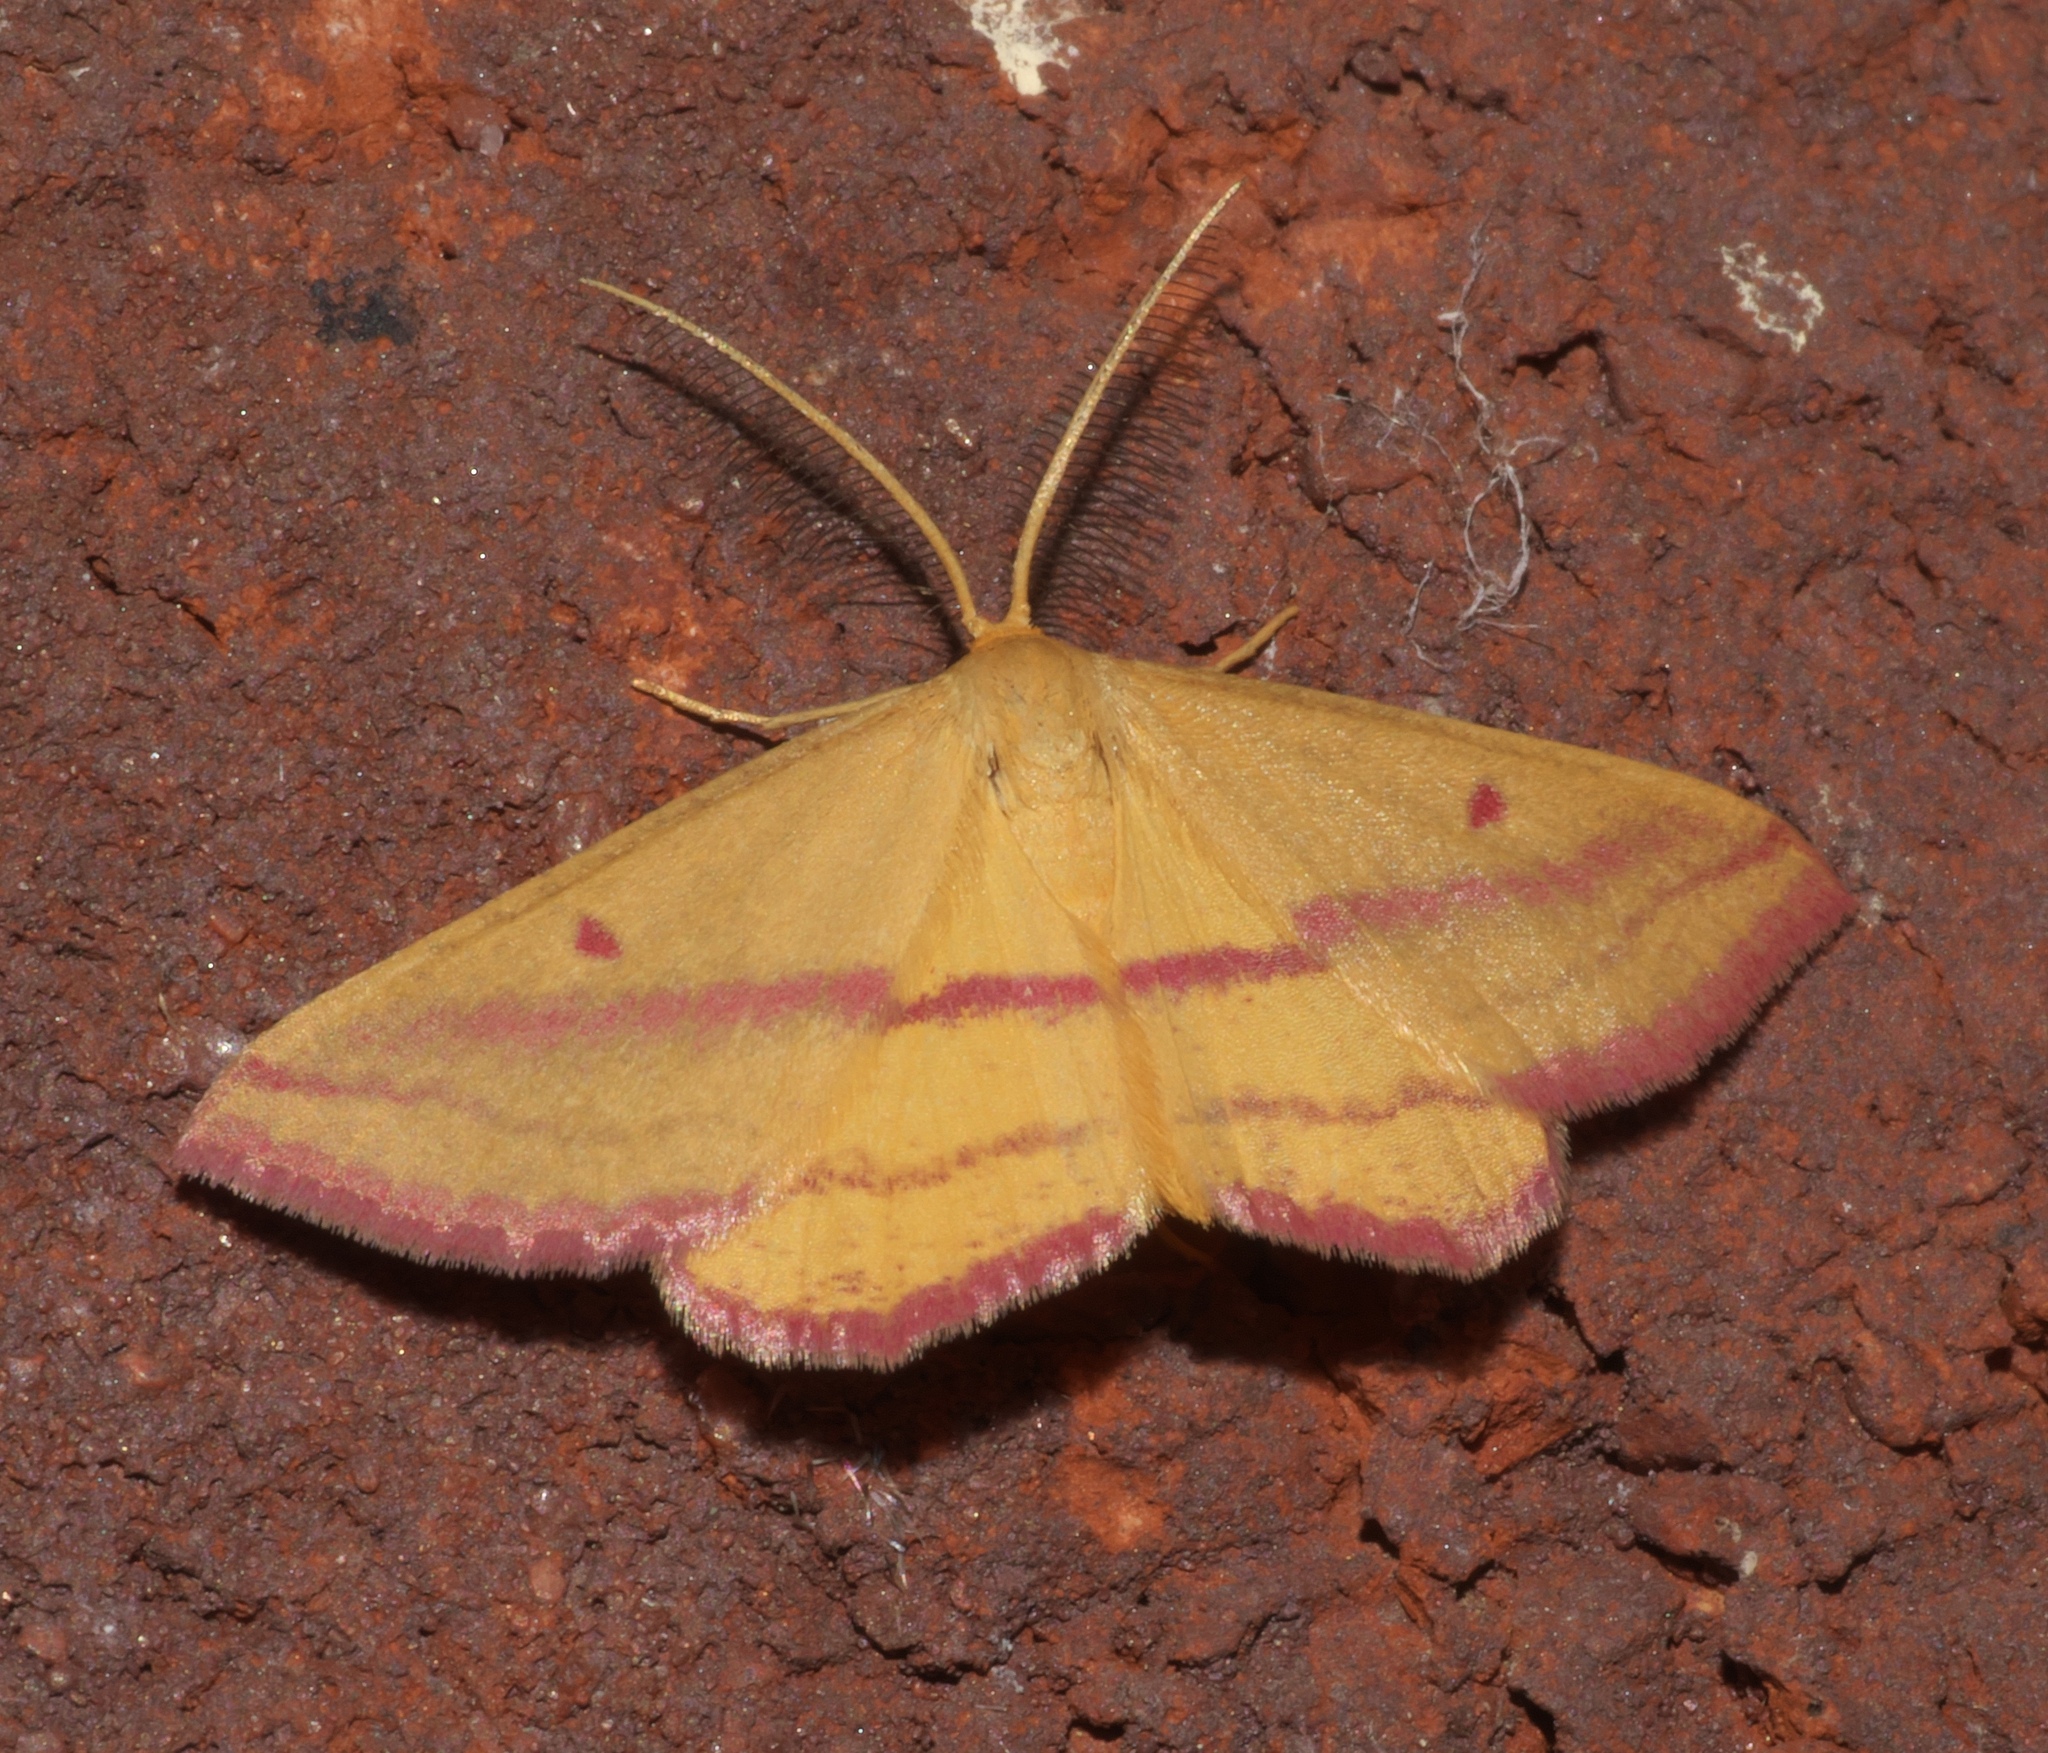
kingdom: Animalia
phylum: Arthropoda
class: Insecta
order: Lepidoptera
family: Geometridae
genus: Haematopis
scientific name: Haematopis grataria
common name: Chickweed geometer
